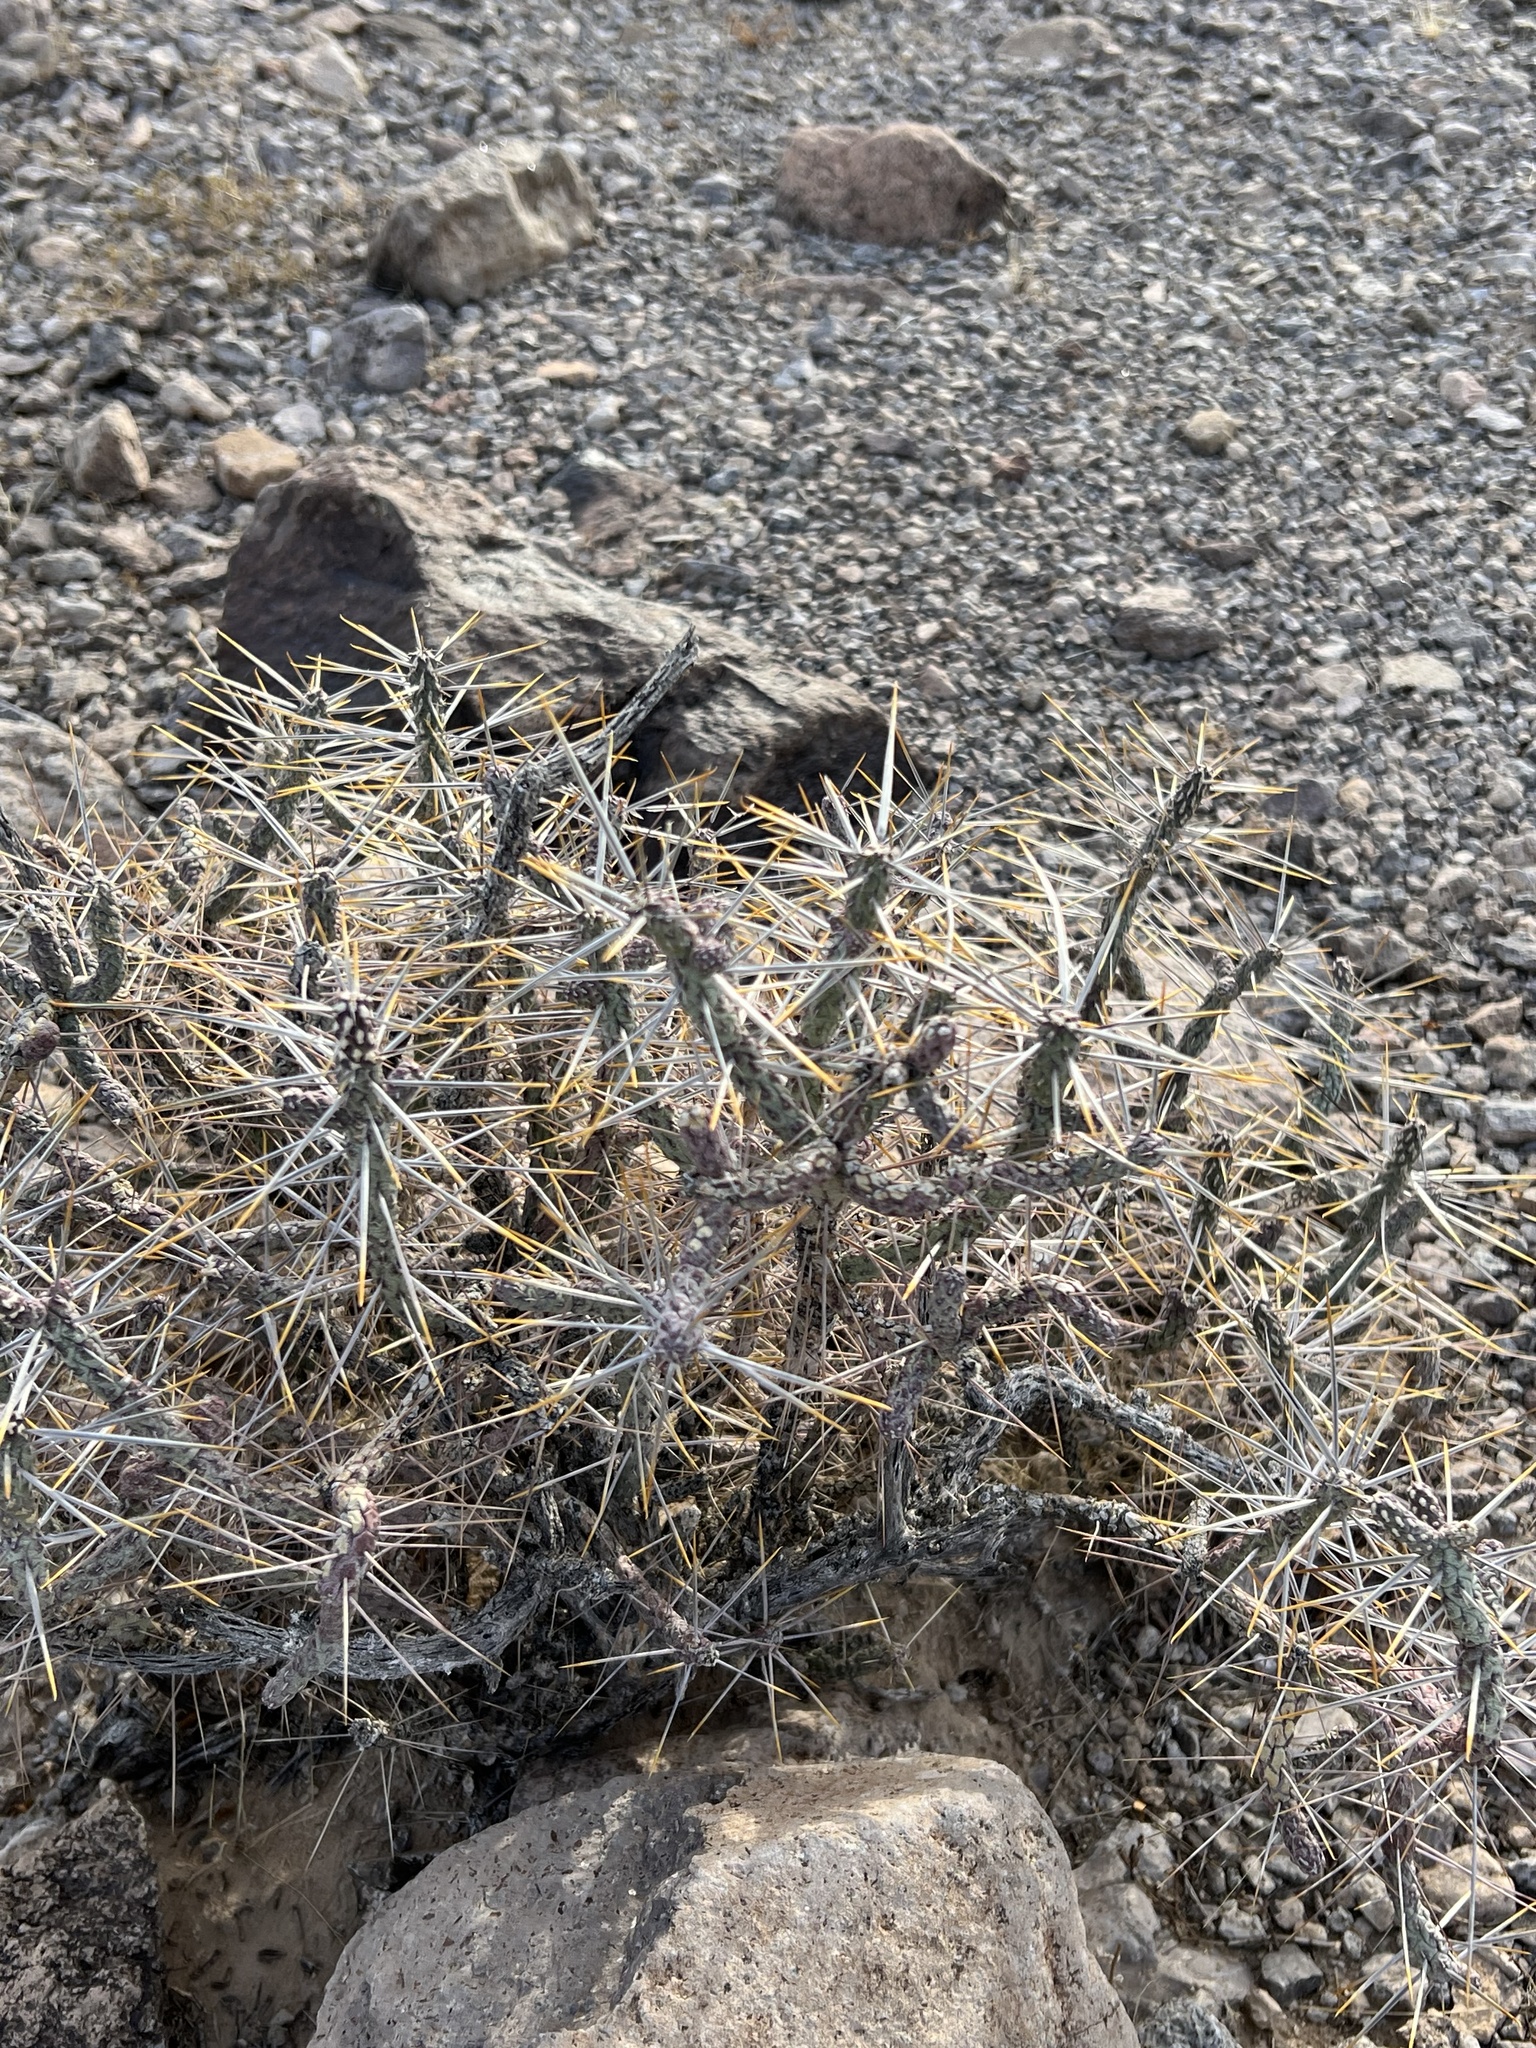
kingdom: Plantae
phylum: Tracheophyta
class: Magnoliopsida
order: Caryophyllales
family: Cactaceae
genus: Cylindropuntia
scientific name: Cylindropuntia ramosissima
